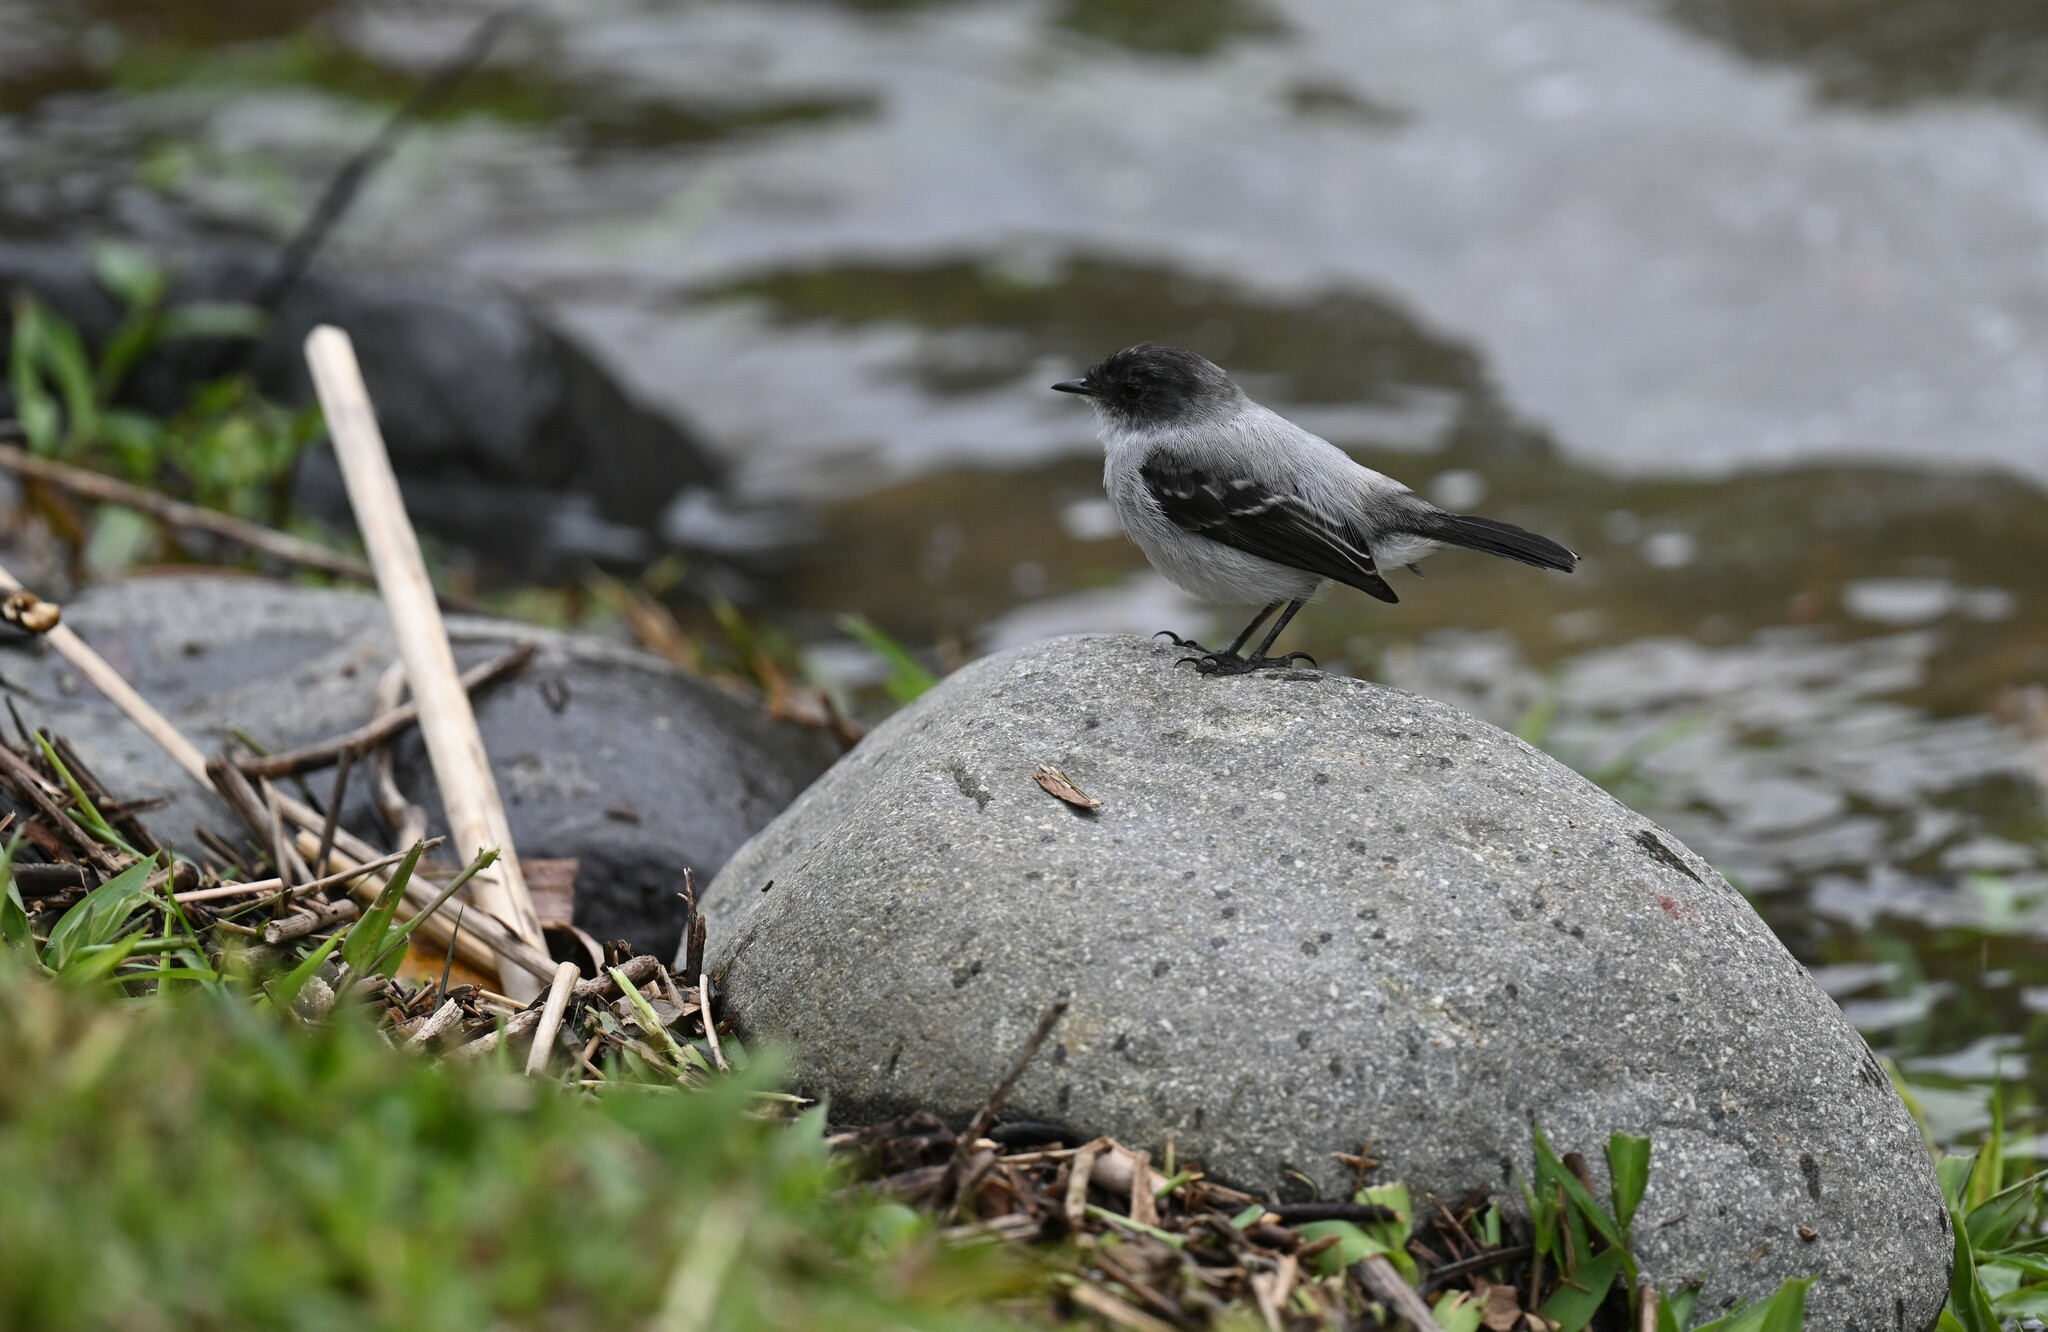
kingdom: Animalia
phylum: Chordata
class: Aves
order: Passeriformes
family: Tyrannidae
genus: Serpophaga
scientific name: Serpophaga cinerea
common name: Torrent tyrannulet
